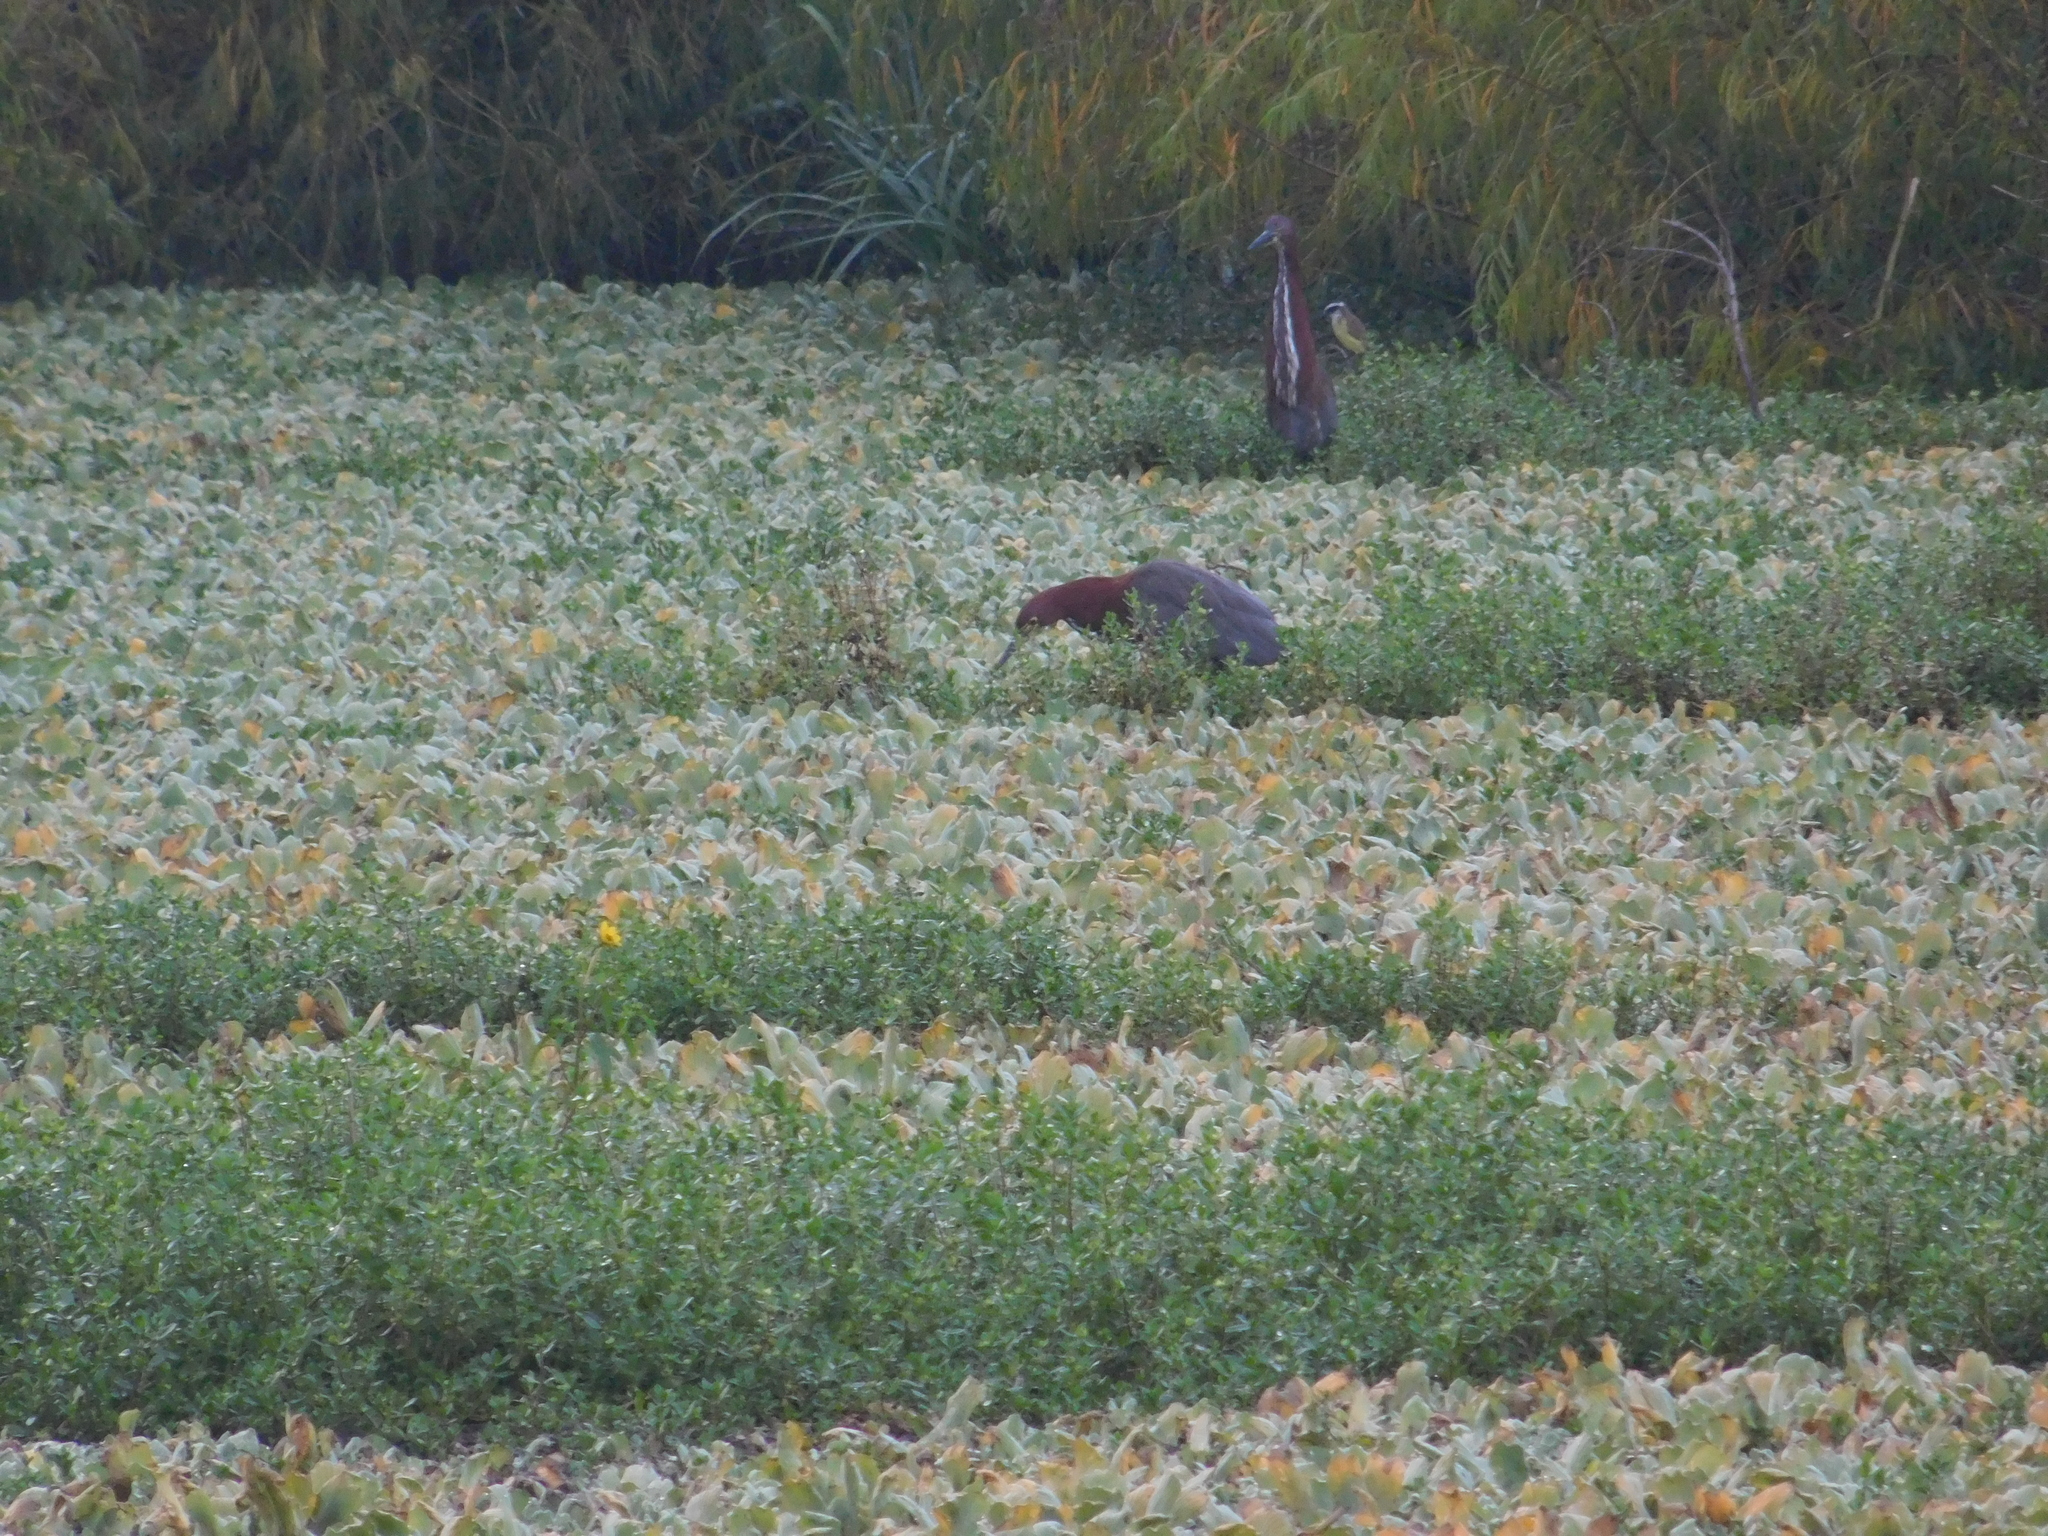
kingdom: Animalia
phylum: Chordata
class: Aves
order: Pelecaniformes
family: Ardeidae
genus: Tigrisoma
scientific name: Tigrisoma lineatum
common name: Rufescent tiger-heron
